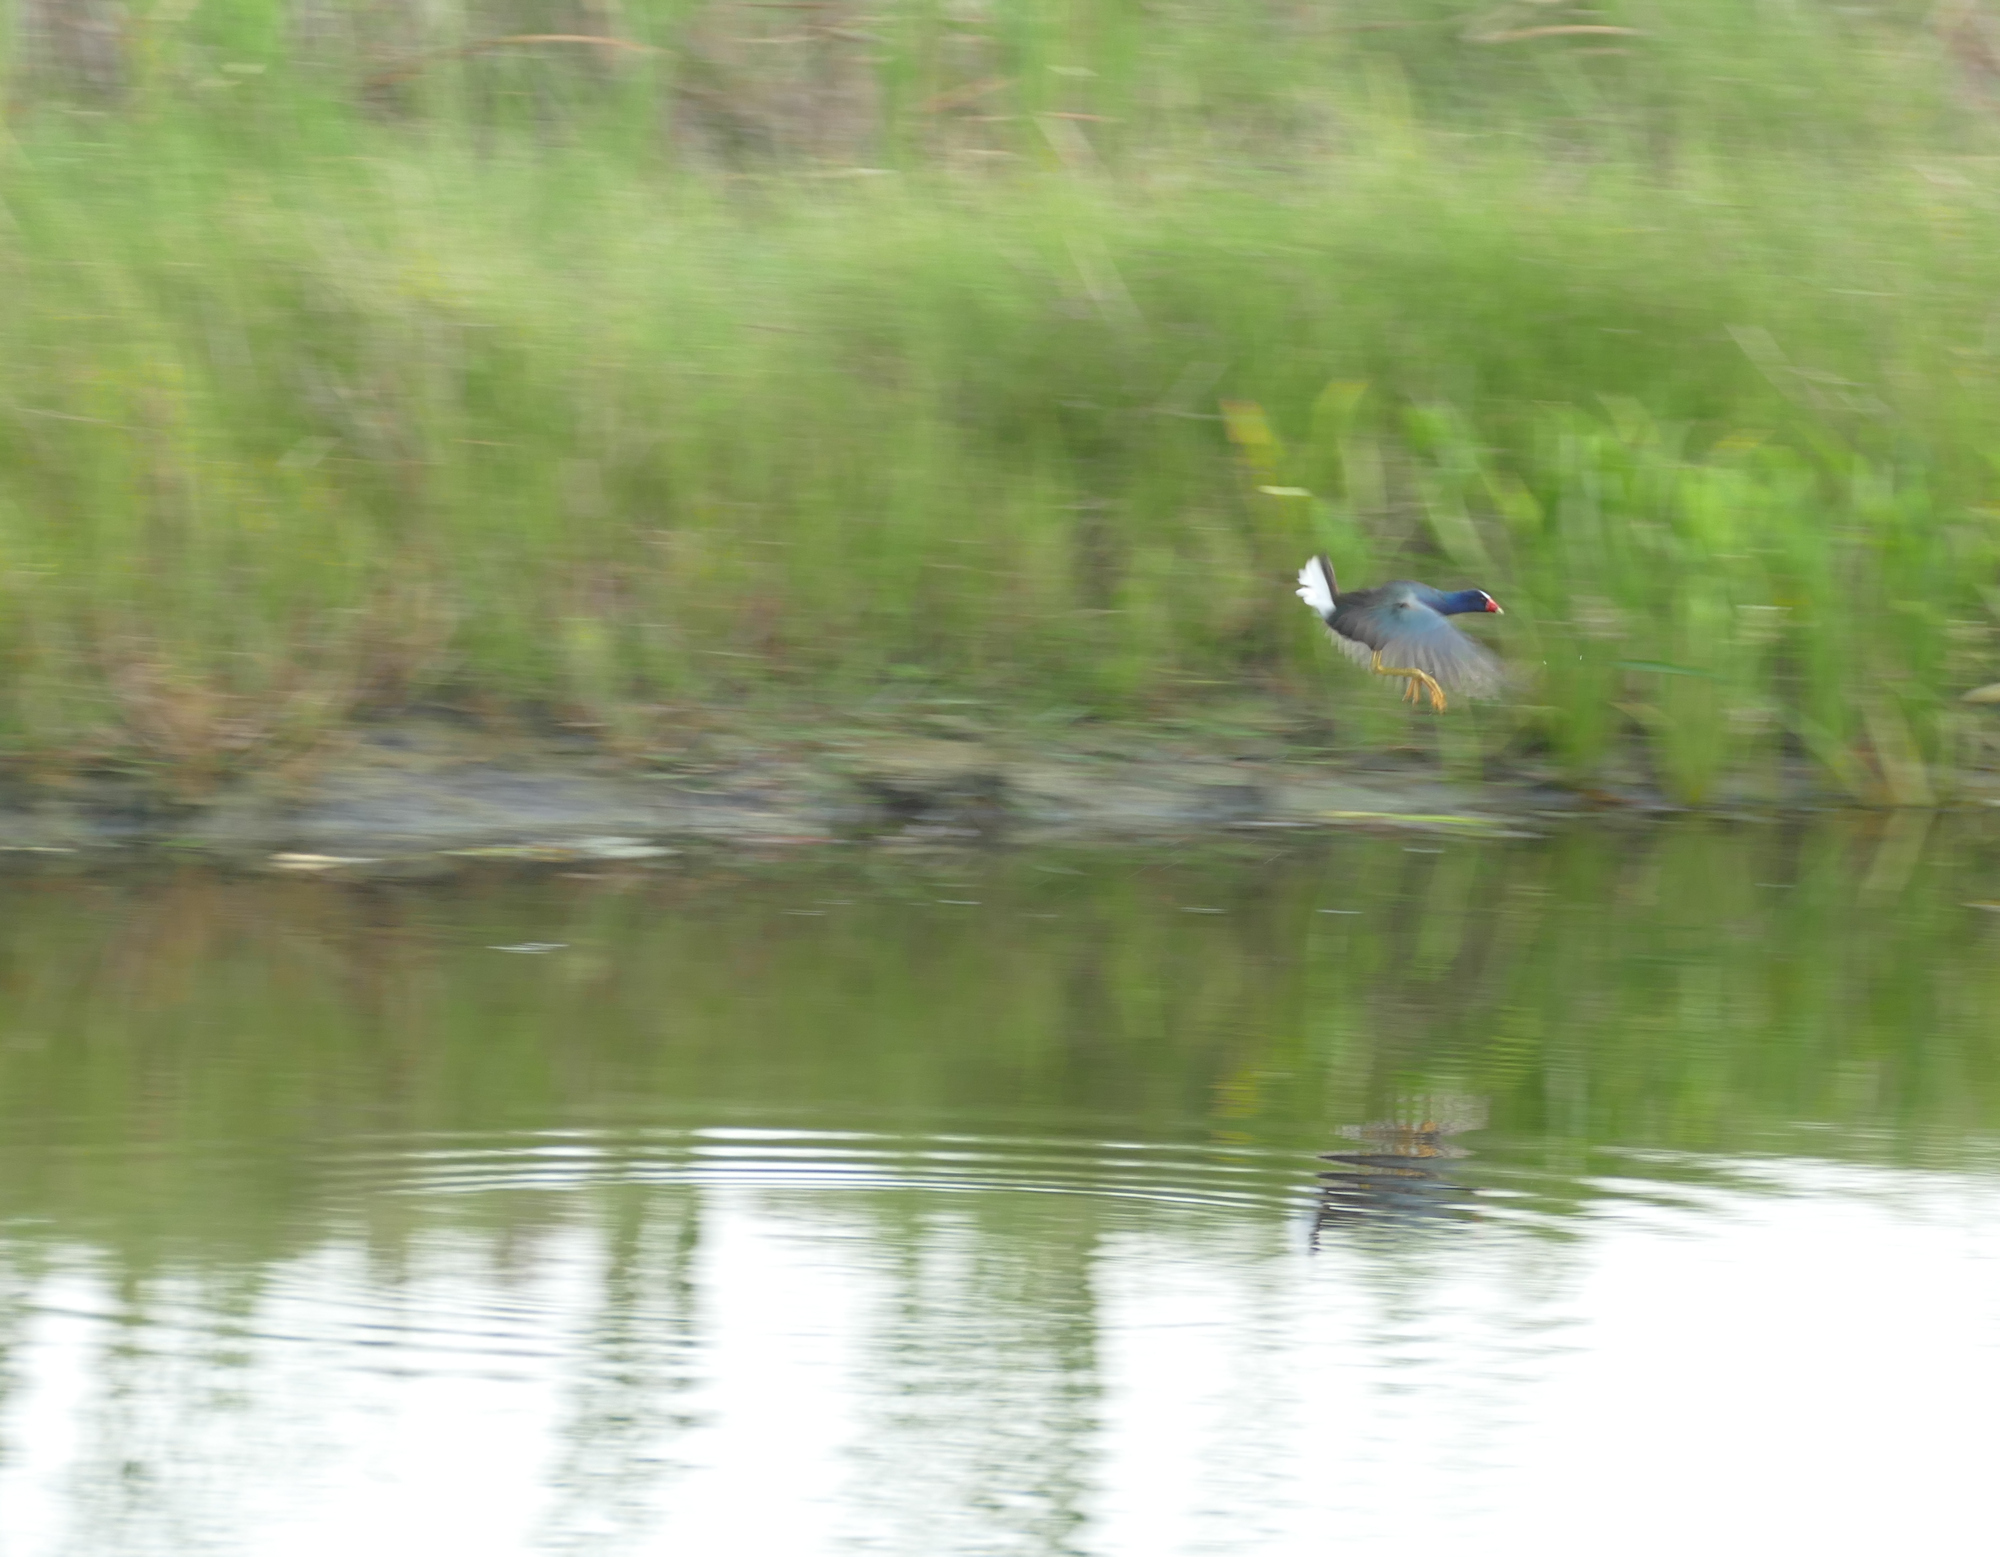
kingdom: Animalia
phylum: Chordata
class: Aves
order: Gruiformes
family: Rallidae
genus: Porphyrio
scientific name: Porphyrio martinica
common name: Purple gallinule
